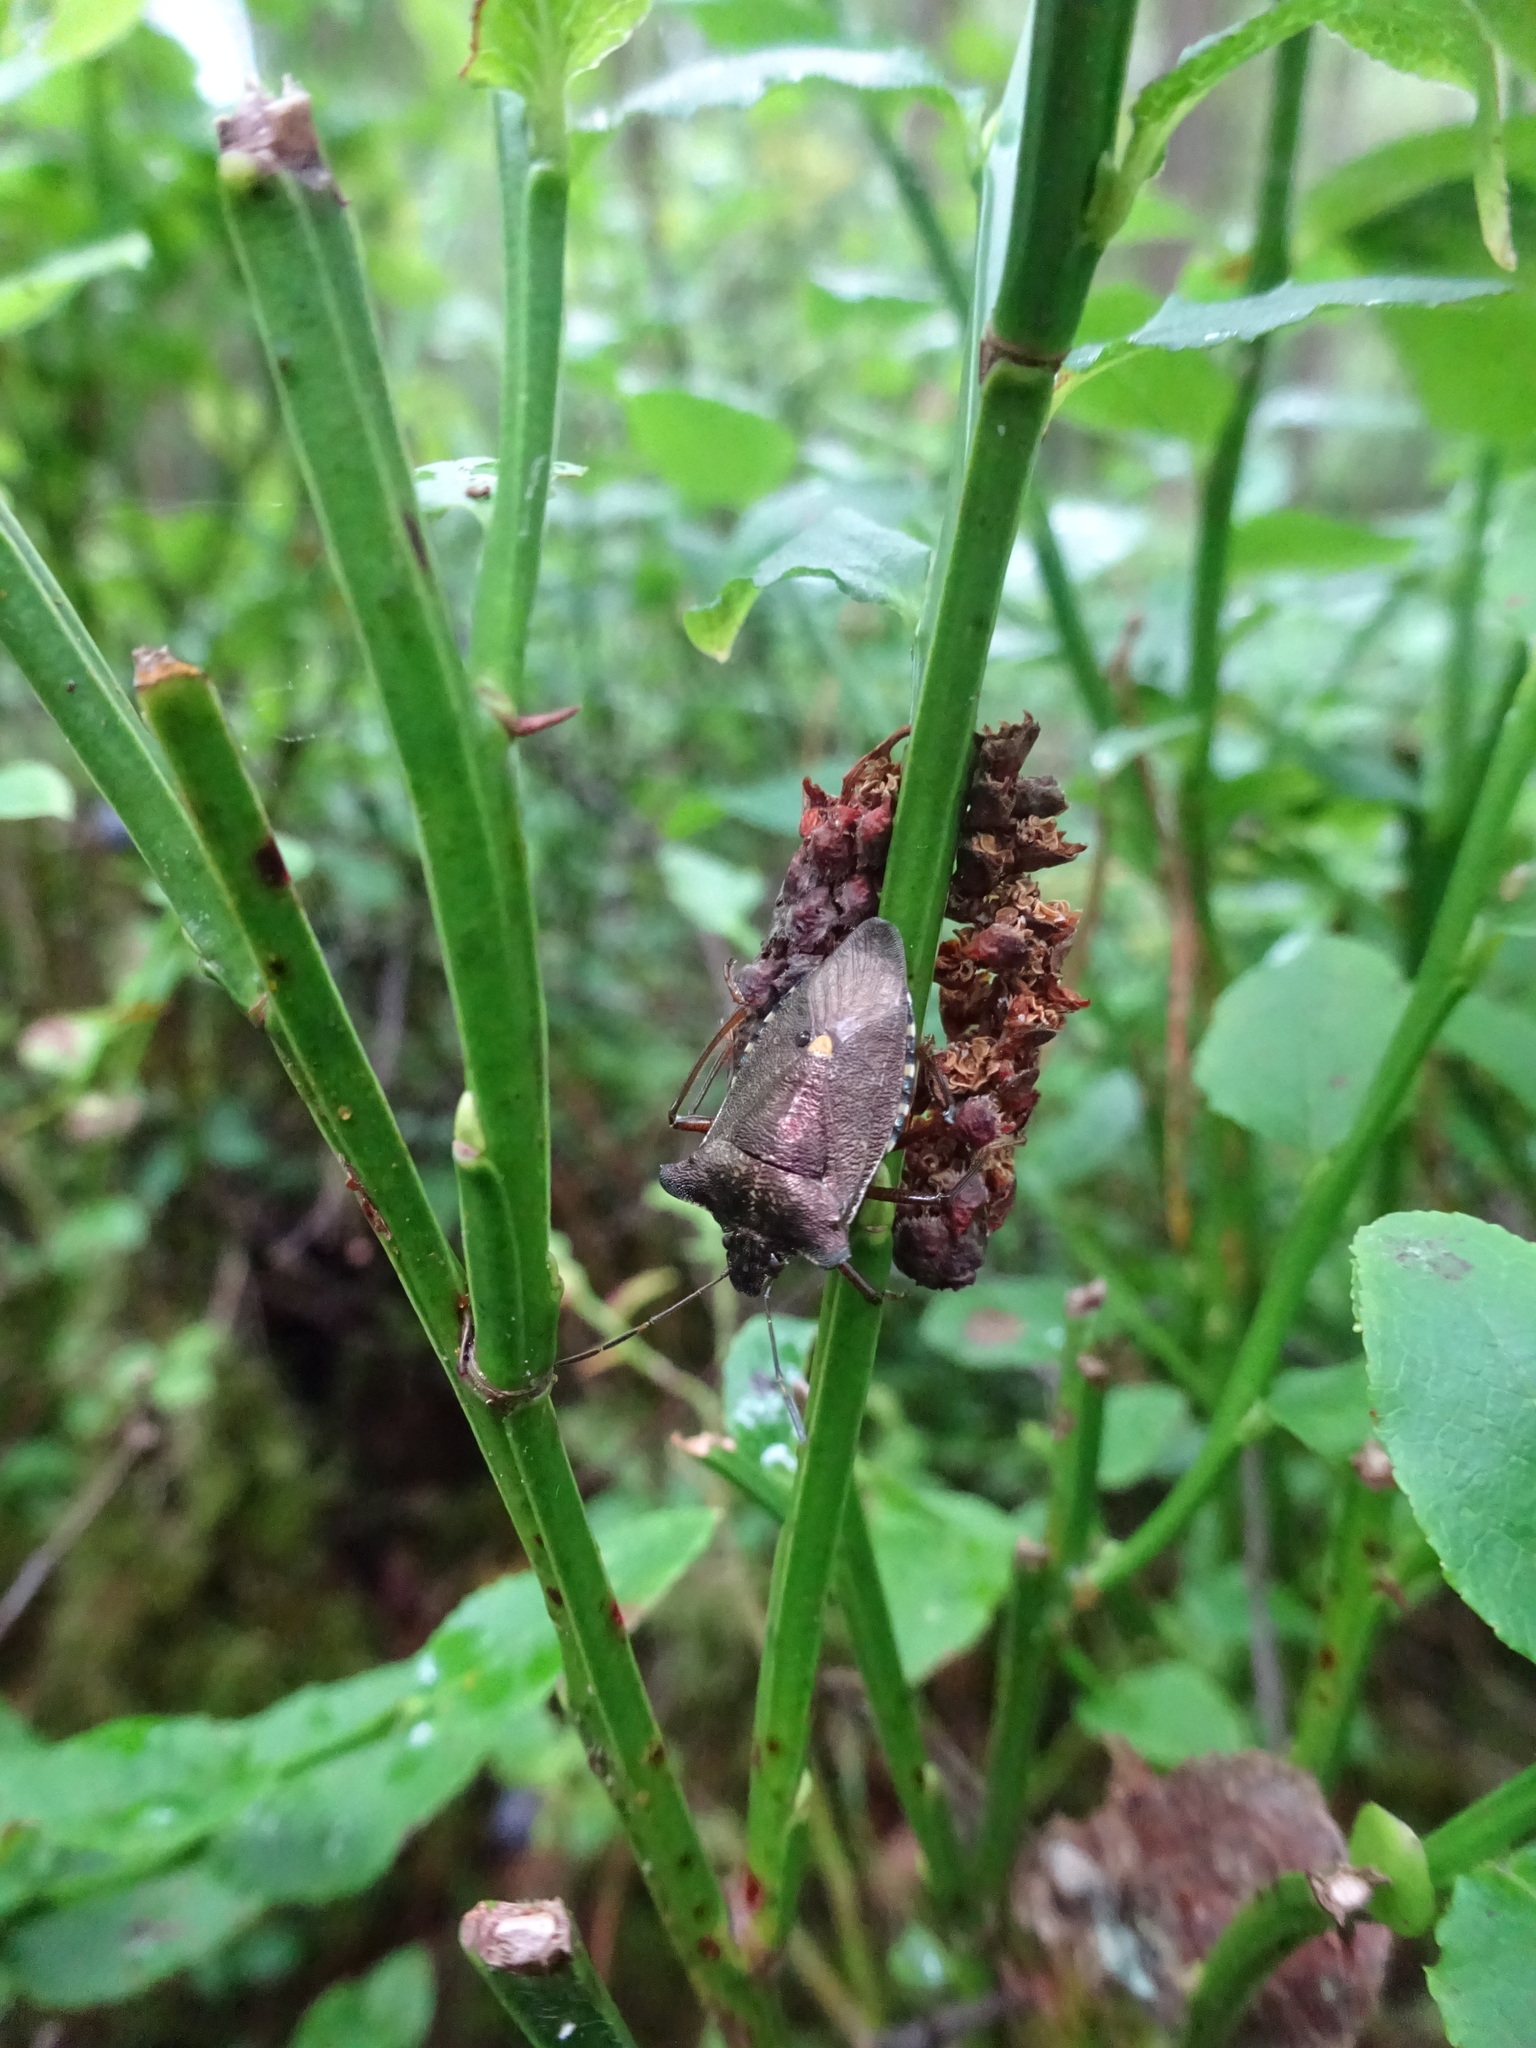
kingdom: Animalia
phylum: Arthropoda
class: Insecta
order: Hemiptera
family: Pentatomidae
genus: Pentatoma
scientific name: Pentatoma rufipes
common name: Forest bug
